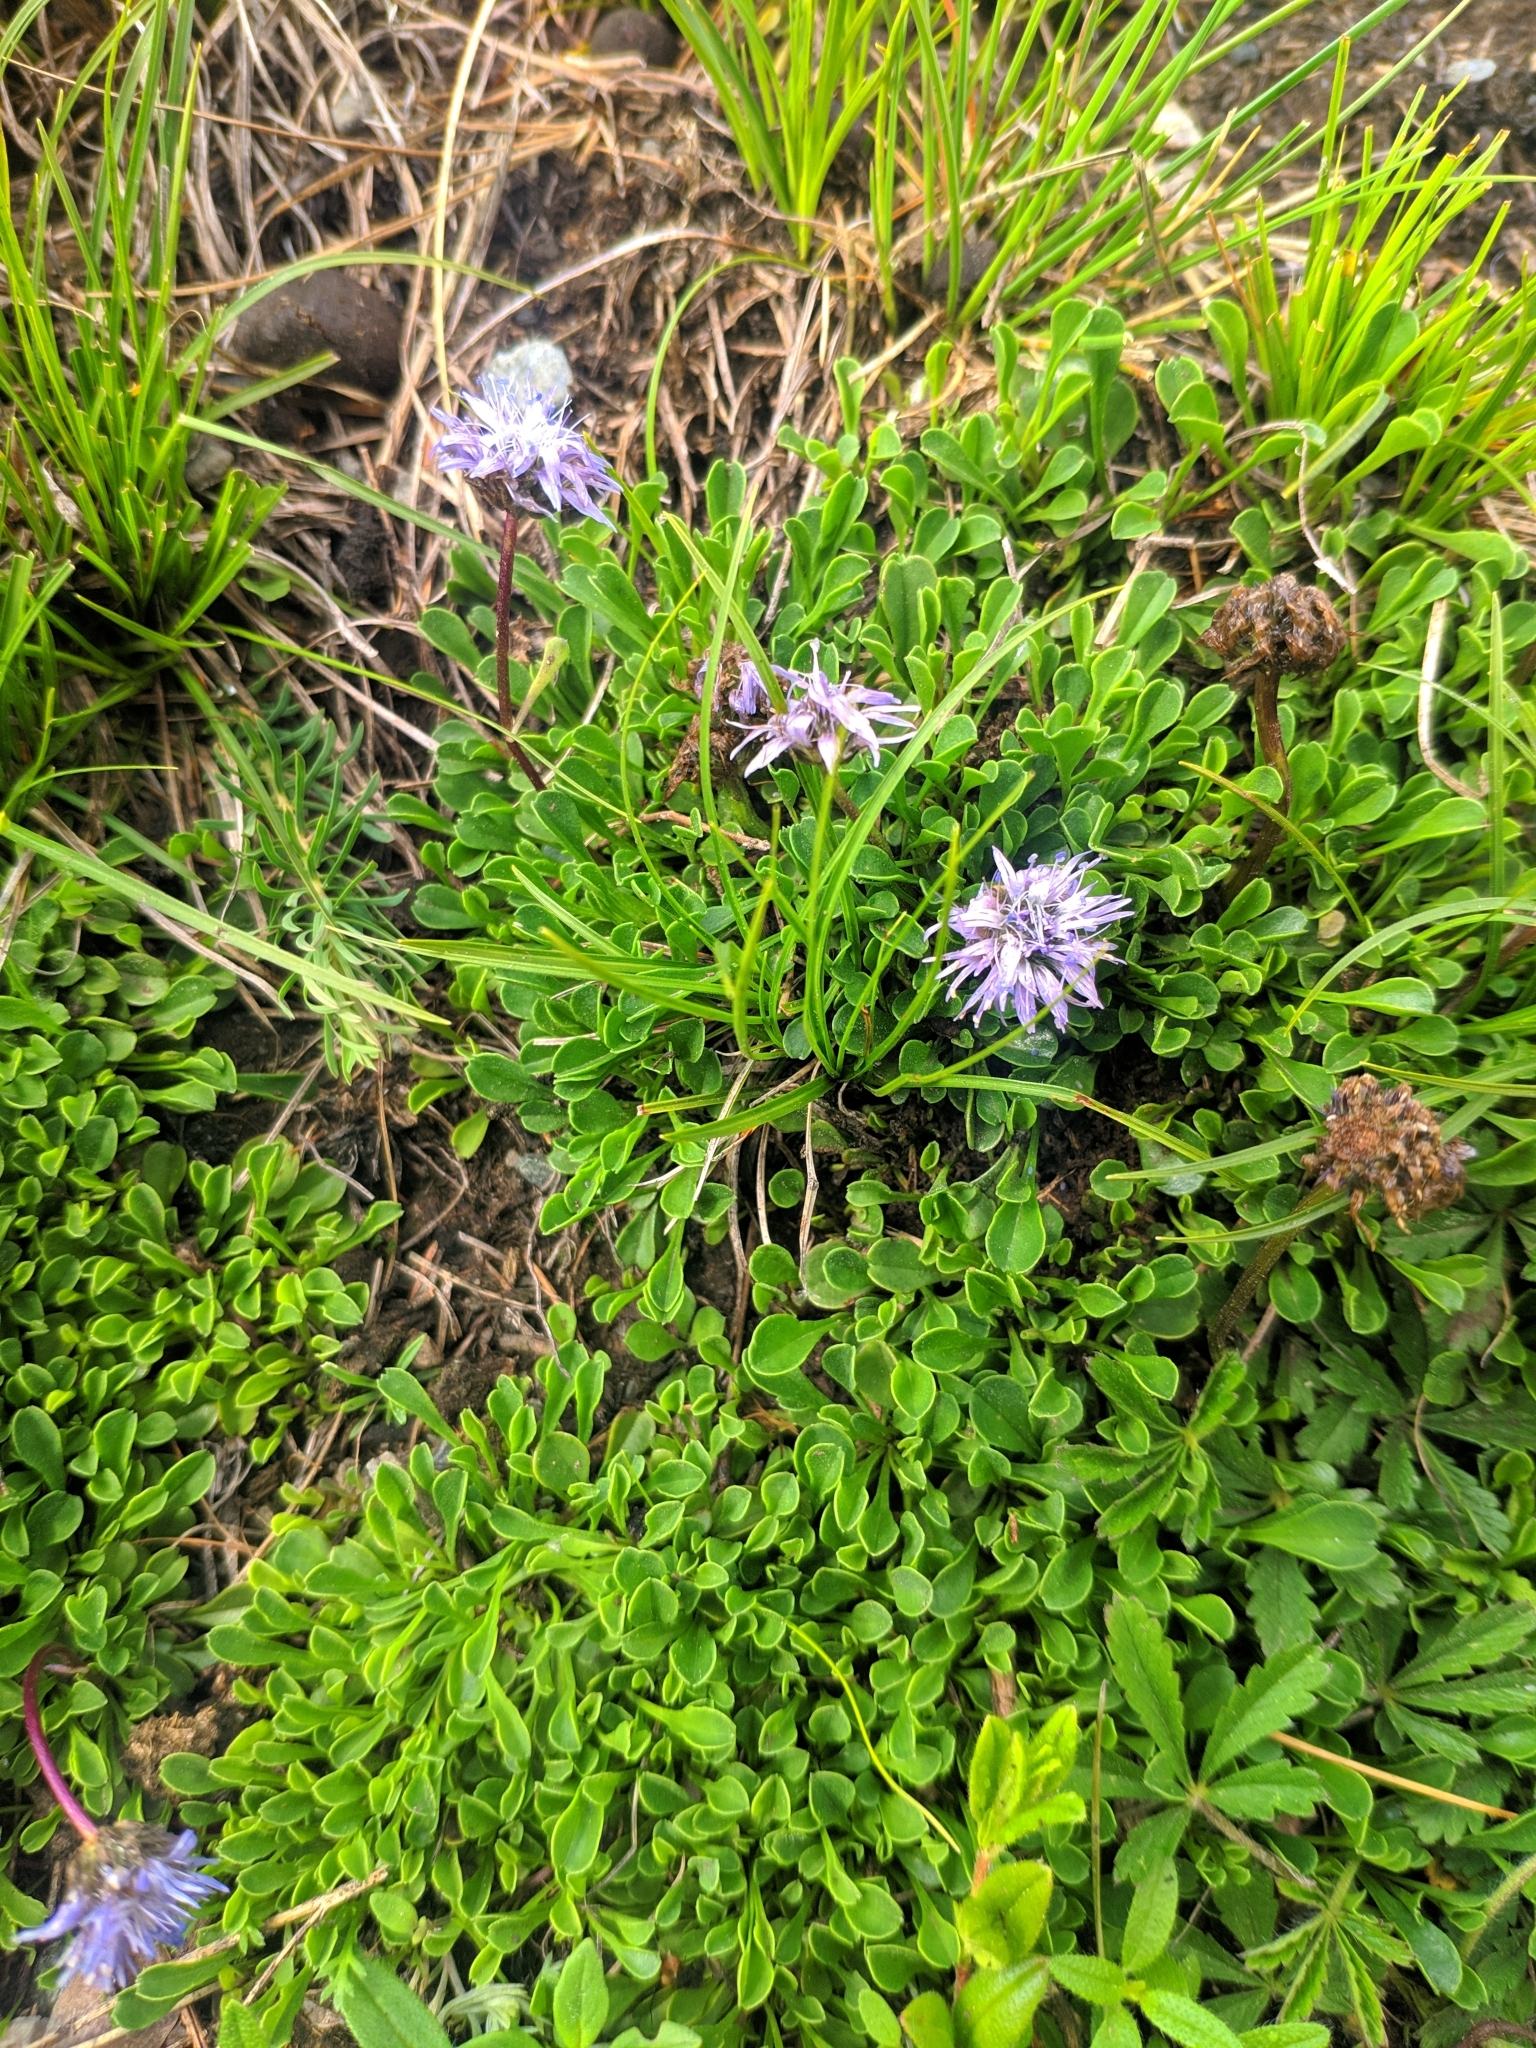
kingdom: Plantae
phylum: Tracheophyta
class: Magnoliopsida
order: Lamiales
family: Plantaginaceae
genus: Globularia
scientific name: Globularia cordifolia
